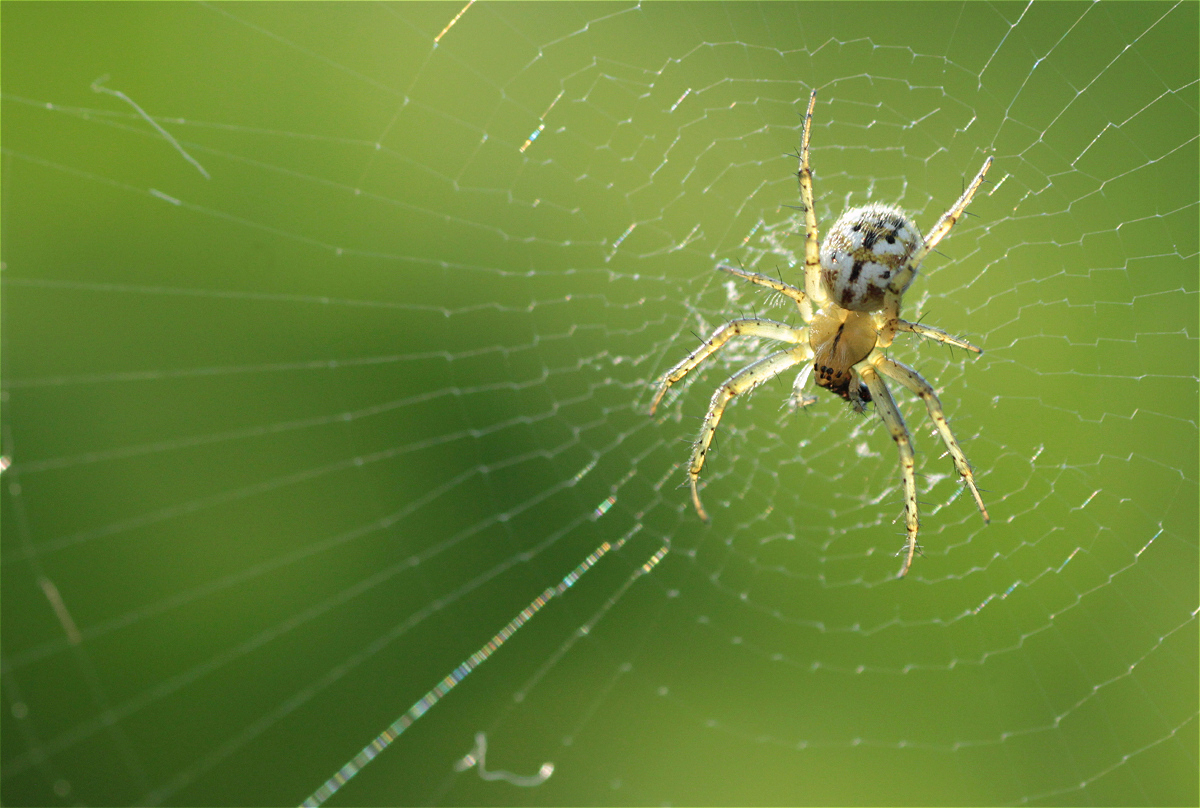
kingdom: Animalia
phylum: Arthropoda
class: Arachnida
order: Araneae
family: Araneidae
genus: Mangora
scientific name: Mangora acalypha
